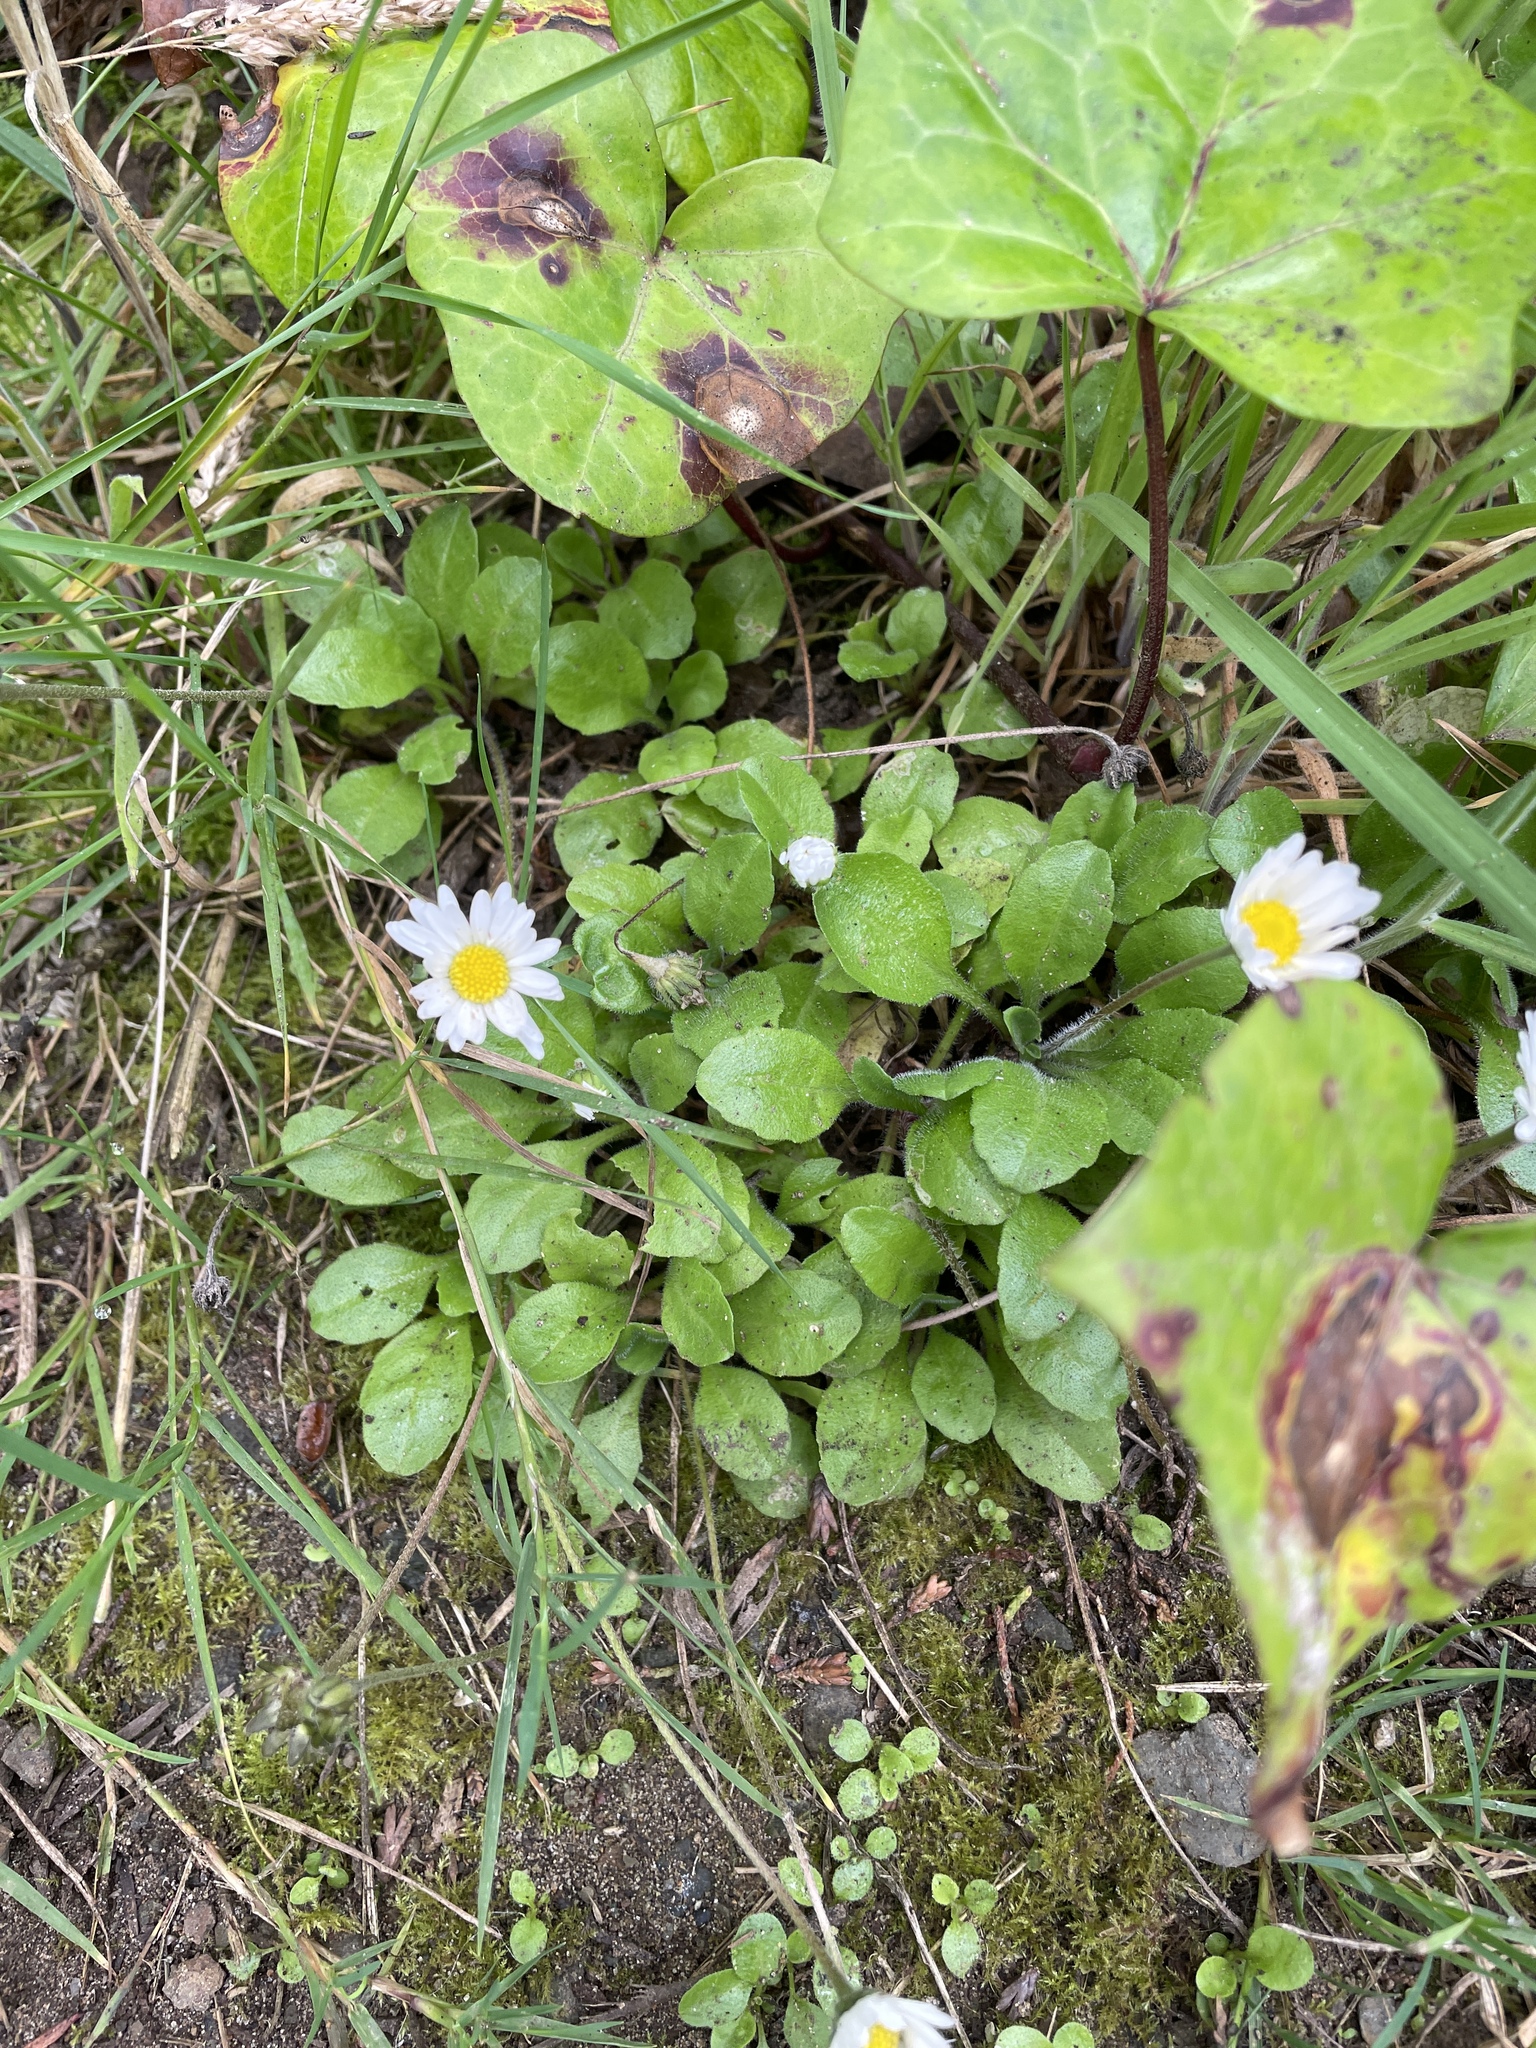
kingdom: Plantae
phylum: Tracheophyta
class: Magnoliopsida
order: Asterales
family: Asteraceae
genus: Bellis
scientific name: Bellis perennis
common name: Lawndaisy
